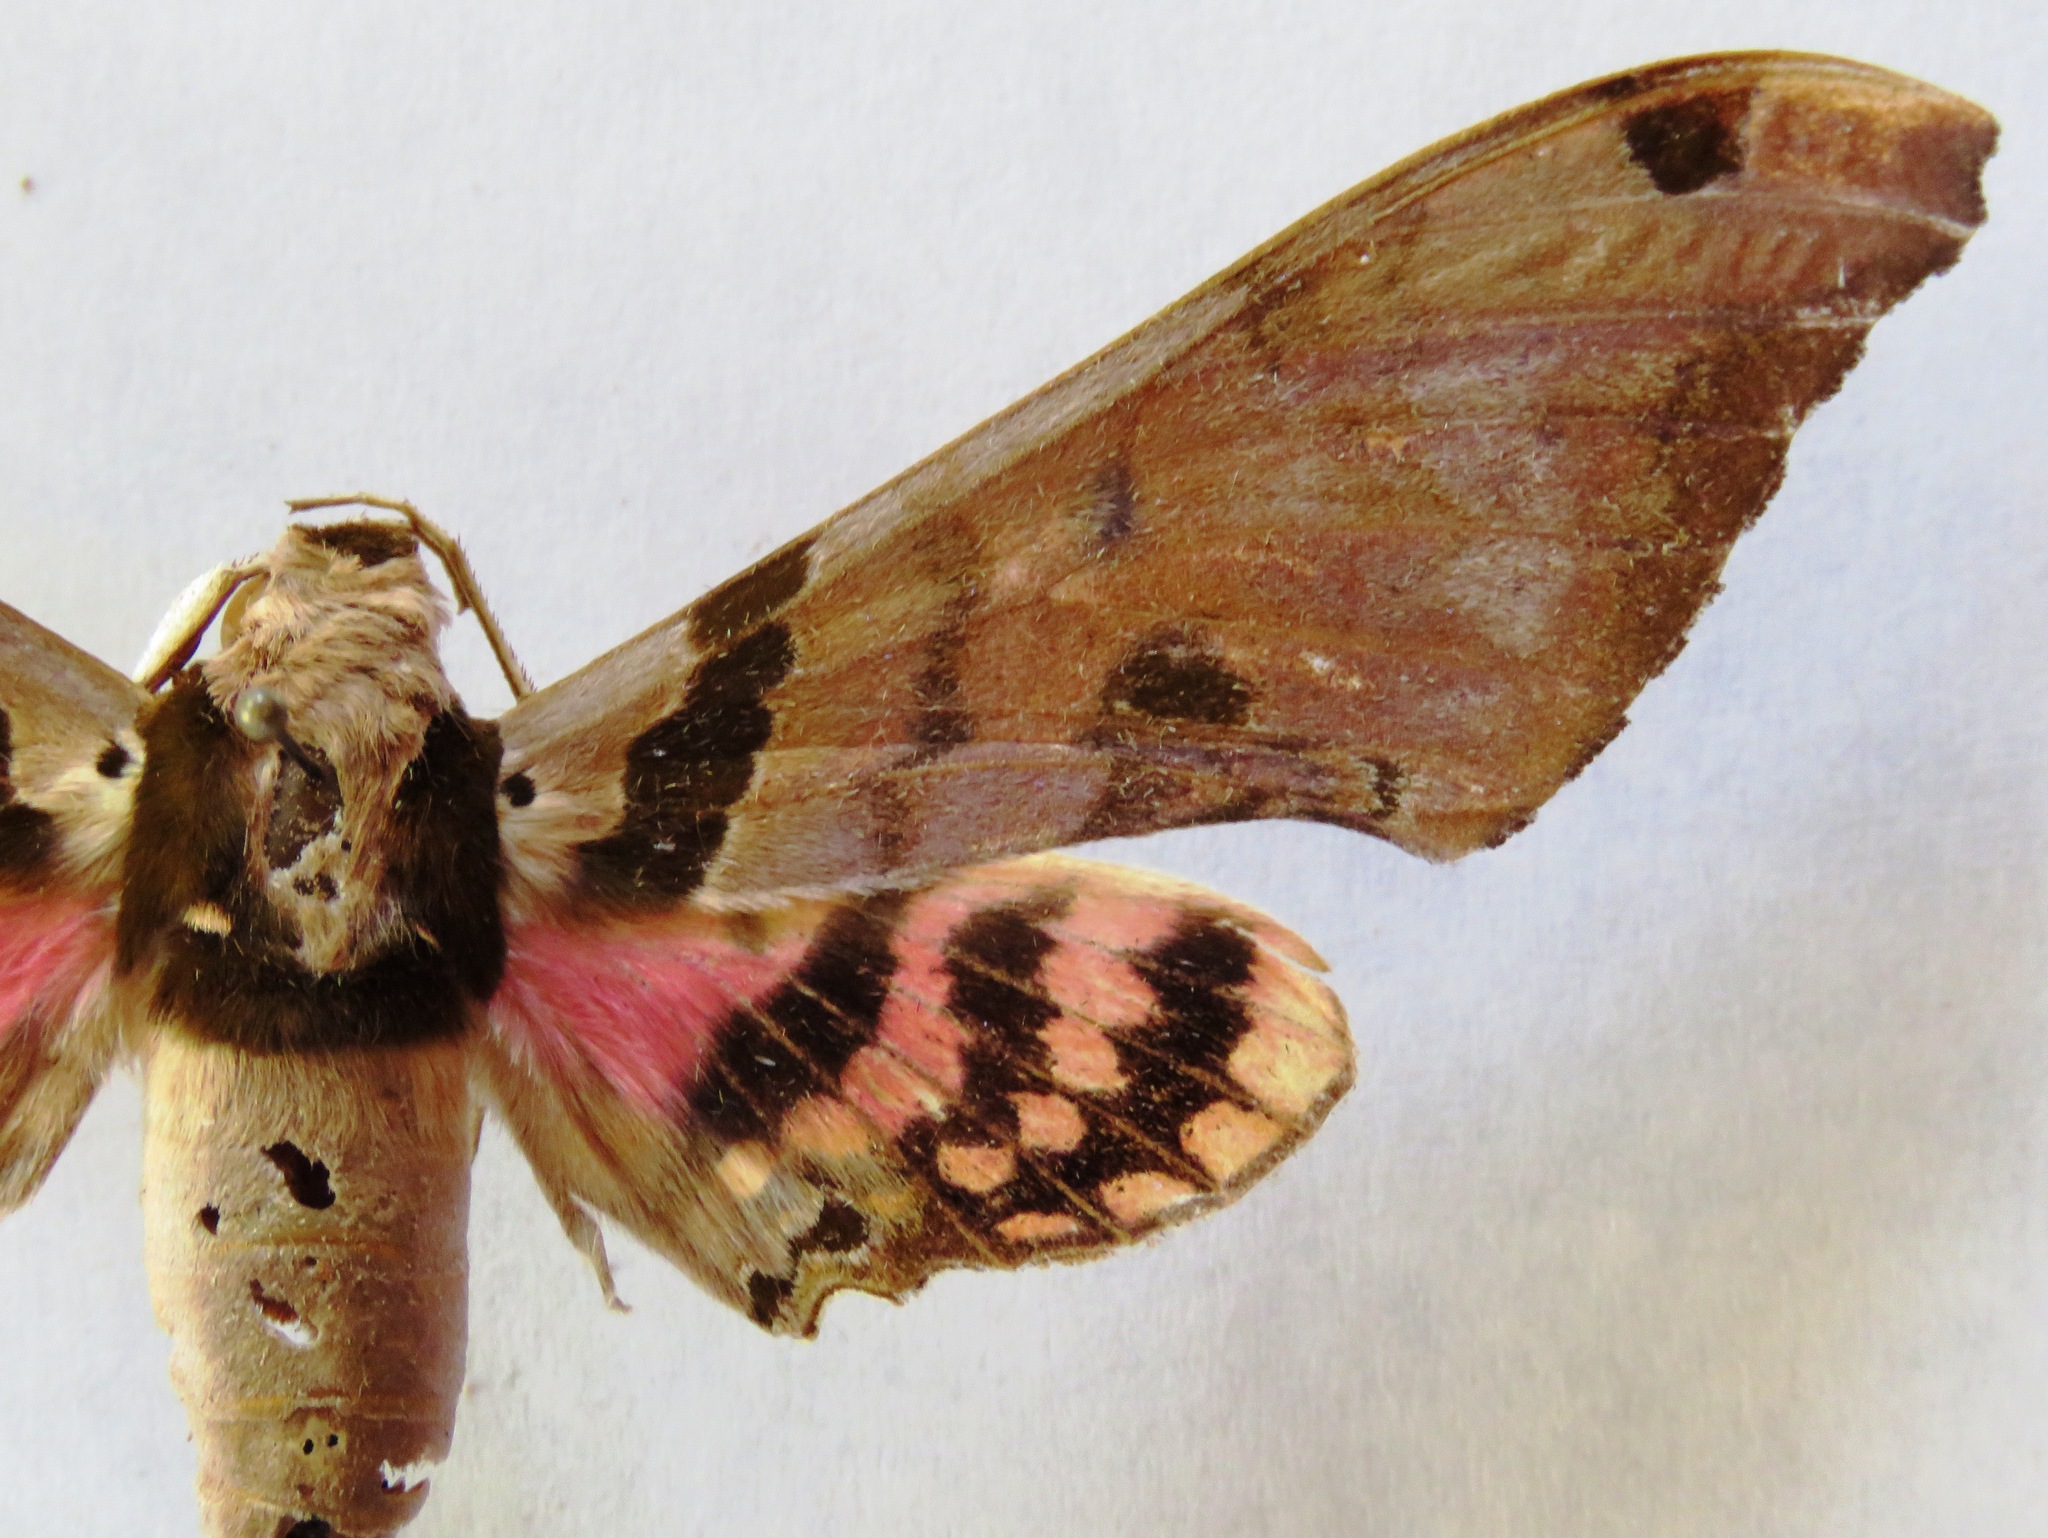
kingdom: Animalia
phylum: Arthropoda
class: Insecta
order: Lepidoptera
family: Sphingidae
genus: Adhemarius
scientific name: Adhemarius gannascus
